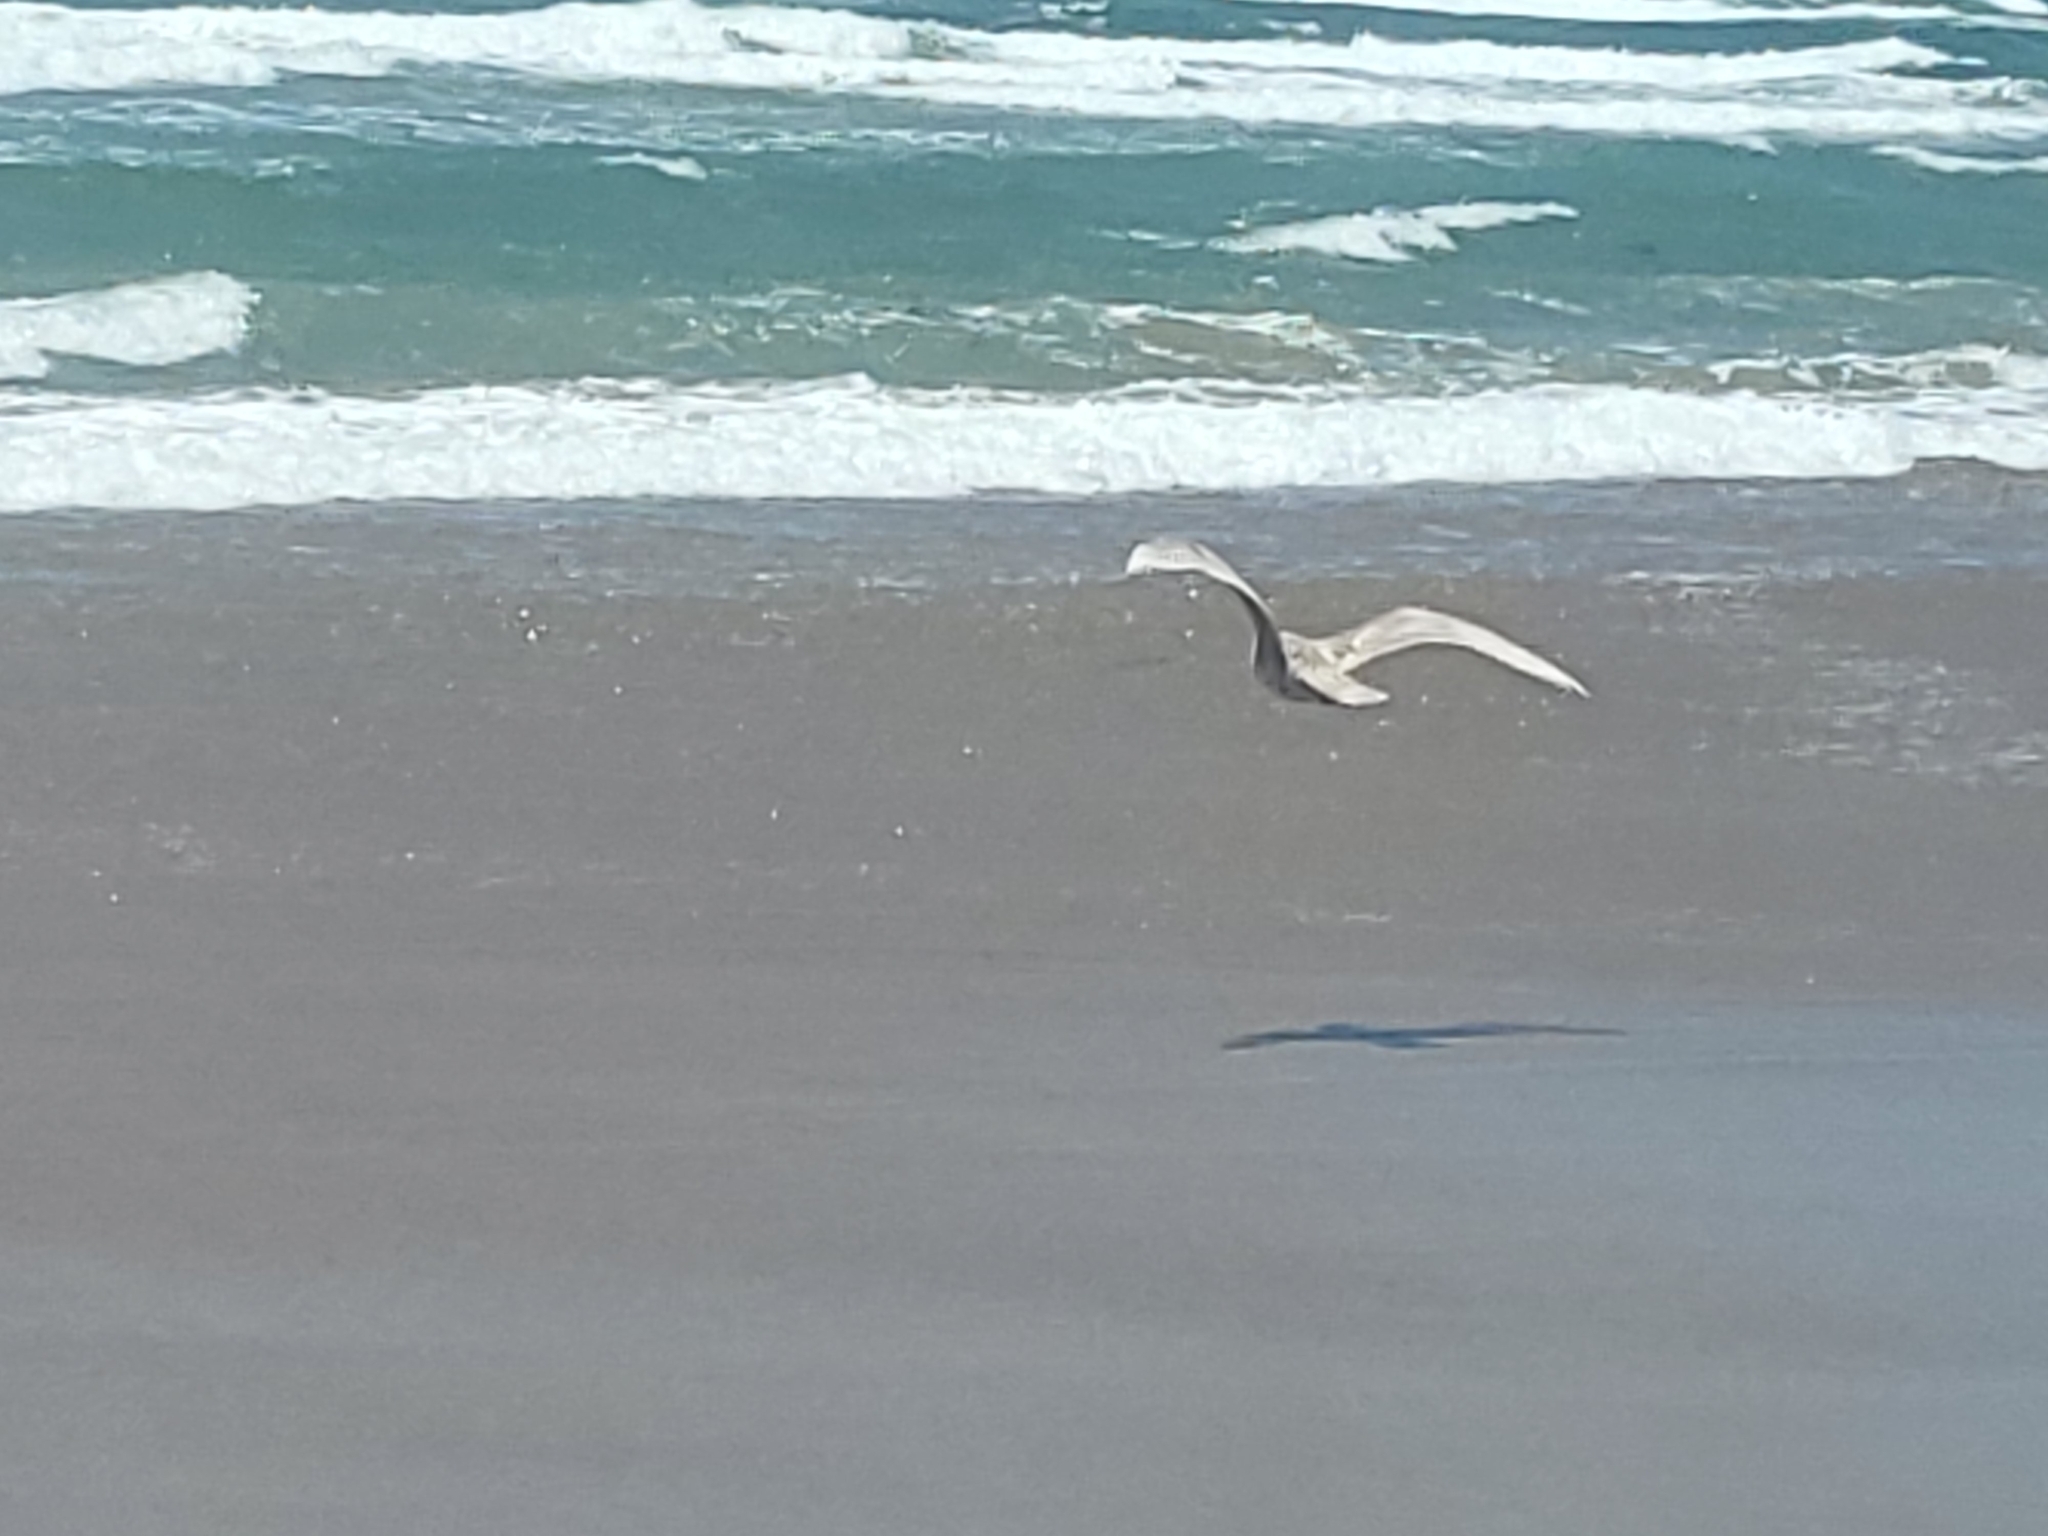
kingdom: Animalia
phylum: Chordata
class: Aves
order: Charadriiformes
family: Laridae
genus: Larus
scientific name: Larus glaucescens
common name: Glaucous-winged gull
